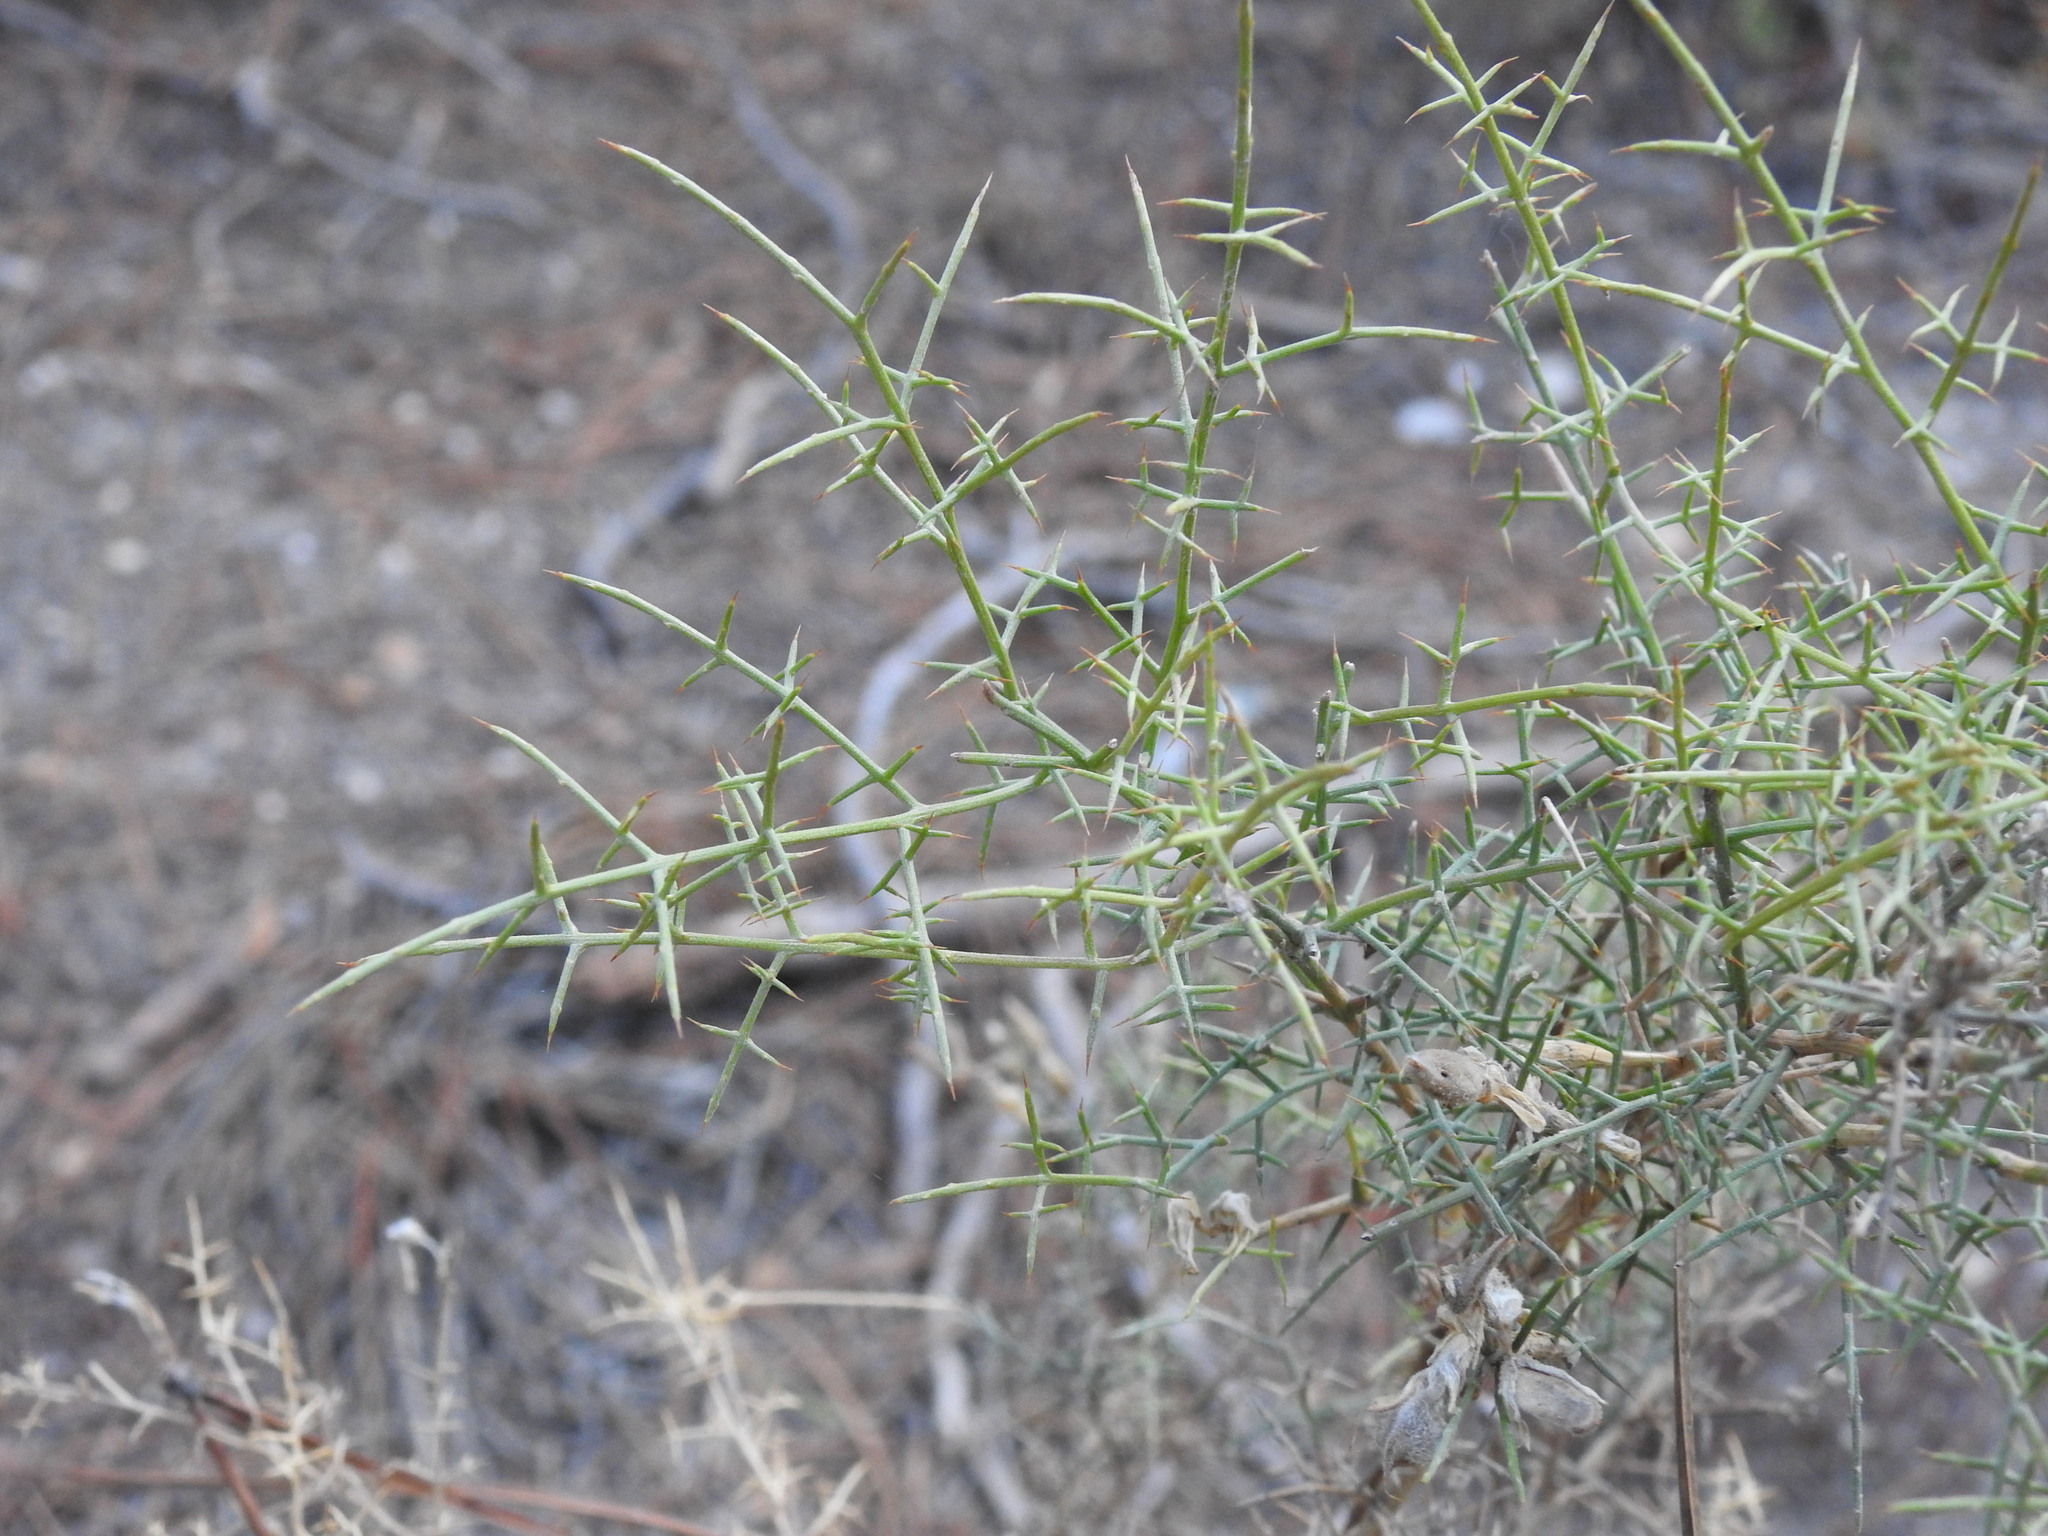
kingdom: Plantae
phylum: Tracheophyta
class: Magnoliopsida
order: Fabales
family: Fabaceae
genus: Stauracanthus
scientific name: Stauracanthus genistoides
